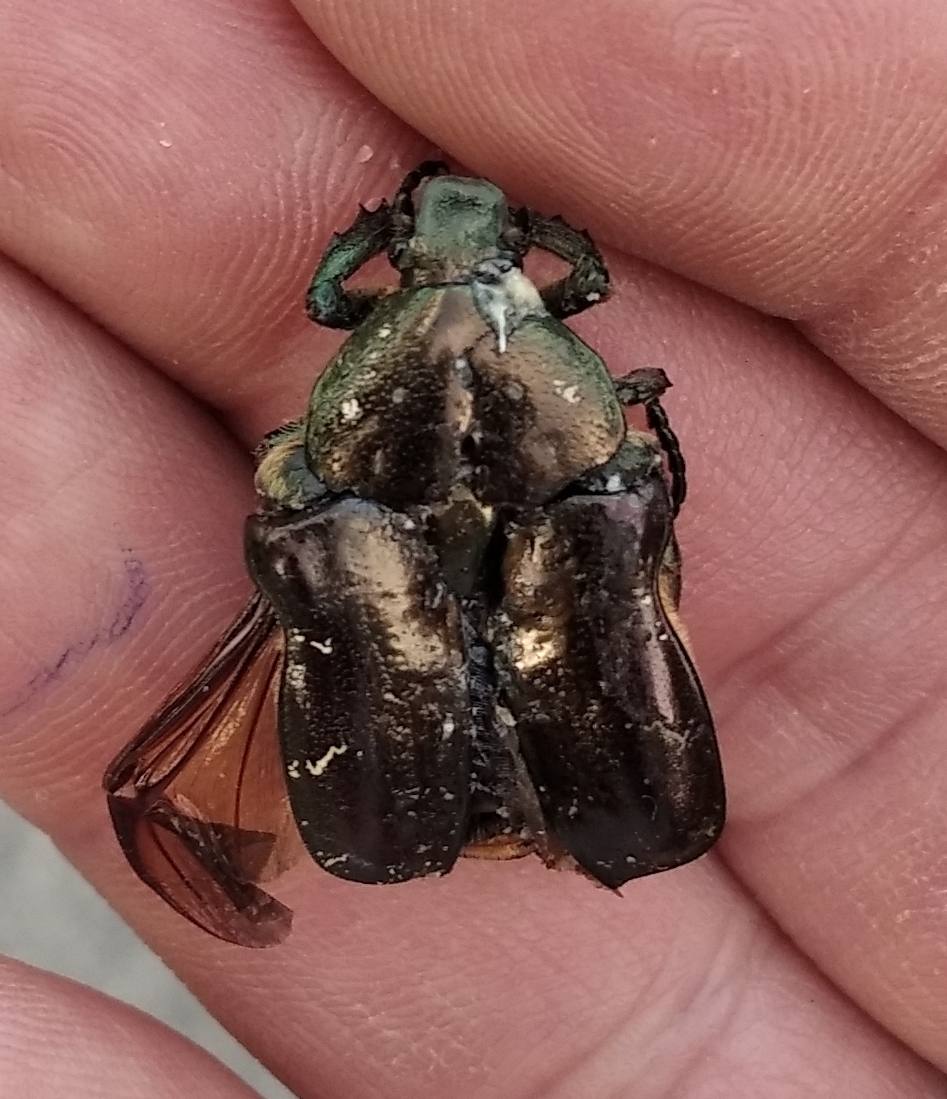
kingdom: Animalia
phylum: Arthropoda
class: Insecta
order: Coleoptera
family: Scarabaeidae
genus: Protaetia
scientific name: Protaetia marmorata
